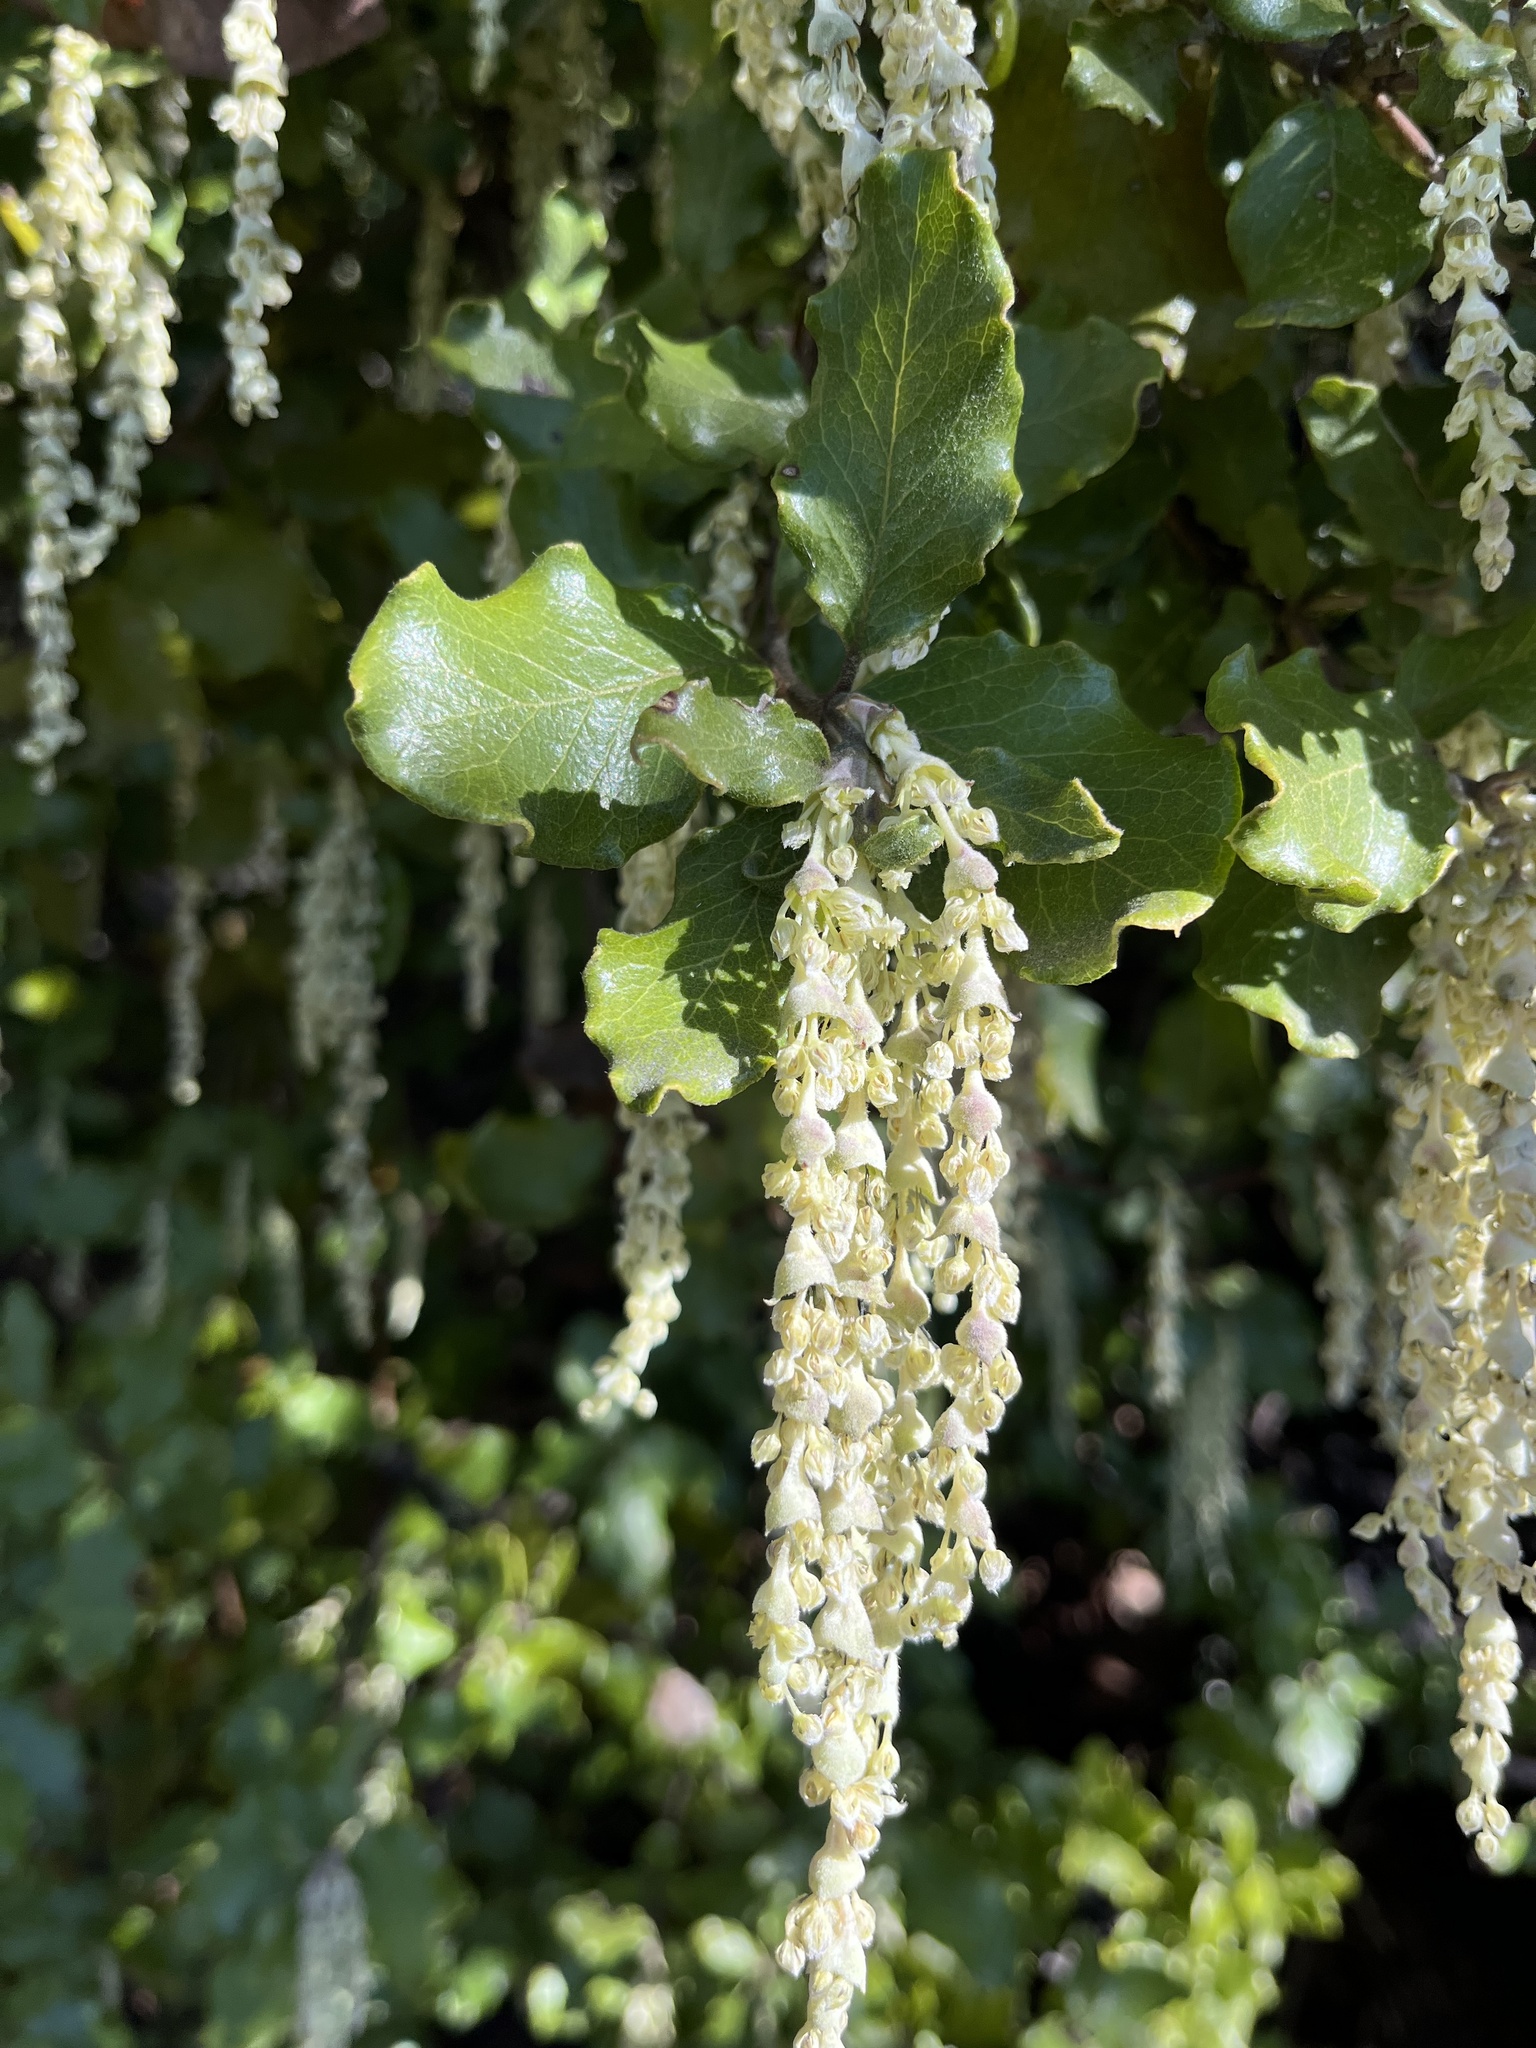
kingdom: Plantae
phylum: Tracheophyta
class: Magnoliopsida
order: Garryales
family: Garryaceae
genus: Garrya
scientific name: Garrya elliptica
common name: Silk-tassel
